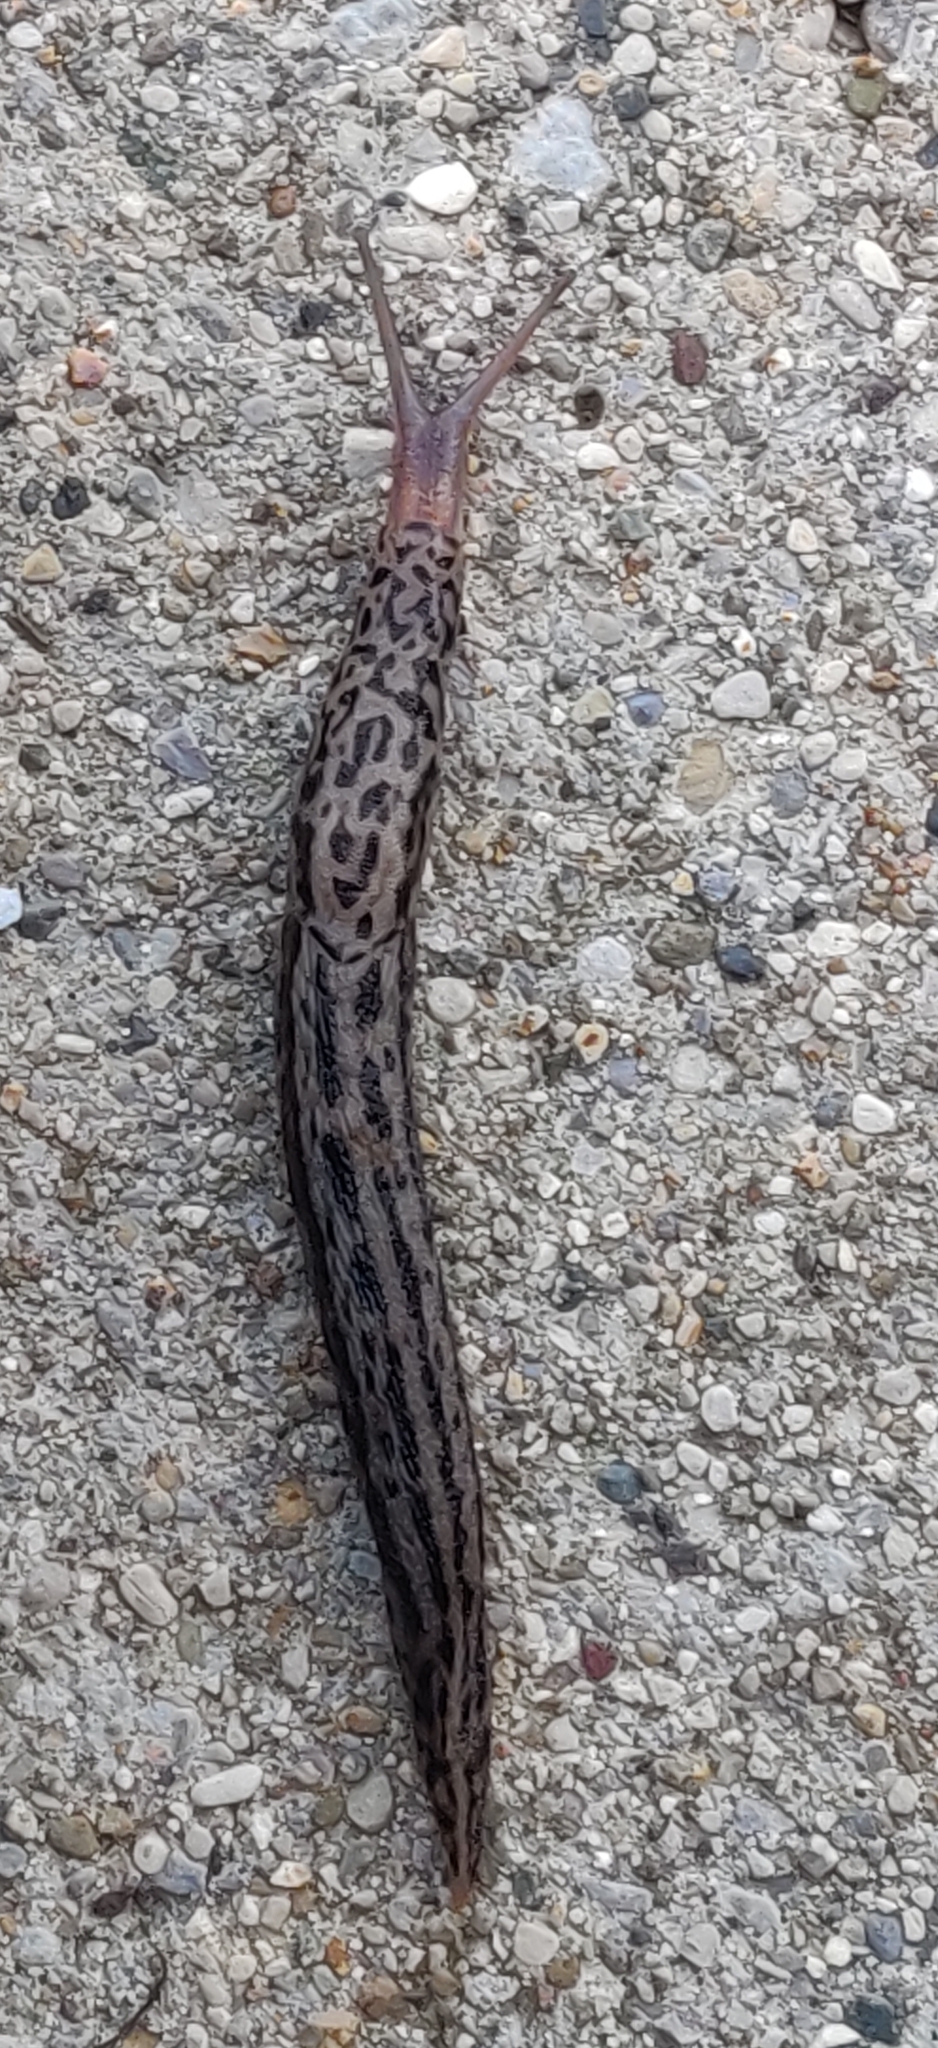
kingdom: Animalia
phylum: Mollusca
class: Gastropoda
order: Stylommatophora
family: Limacidae
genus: Limax
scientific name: Limax maximus
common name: Great grey slug
